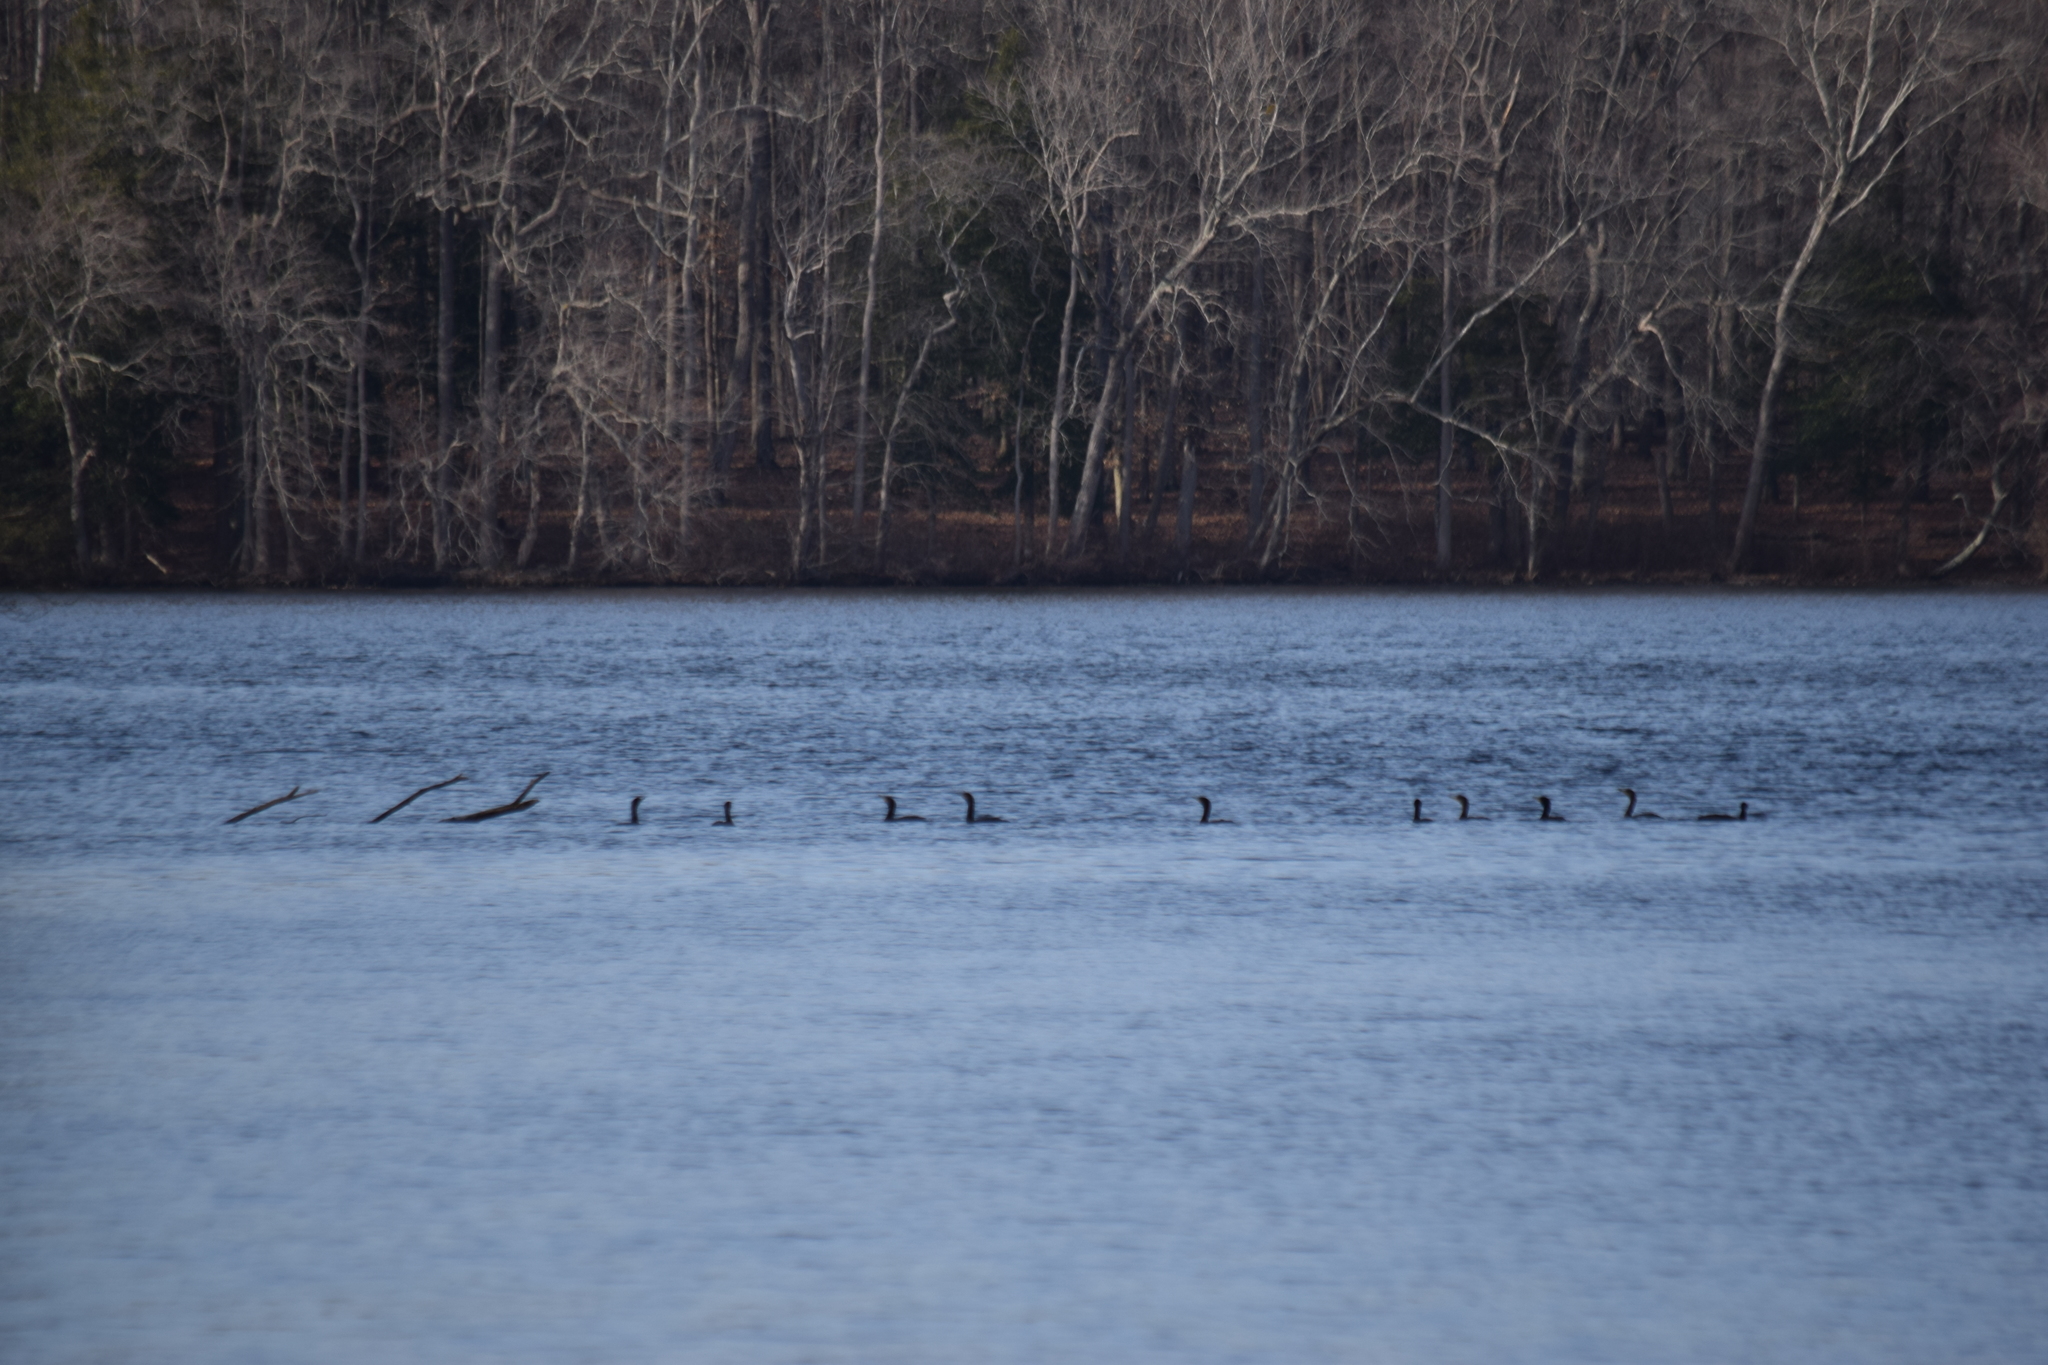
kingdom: Animalia
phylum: Chordata
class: Aves
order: Suliformes
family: Phalacrocoracidae
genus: Phalacrocorax
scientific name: Phalacrocorax auritus
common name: Double-crested cormorant
